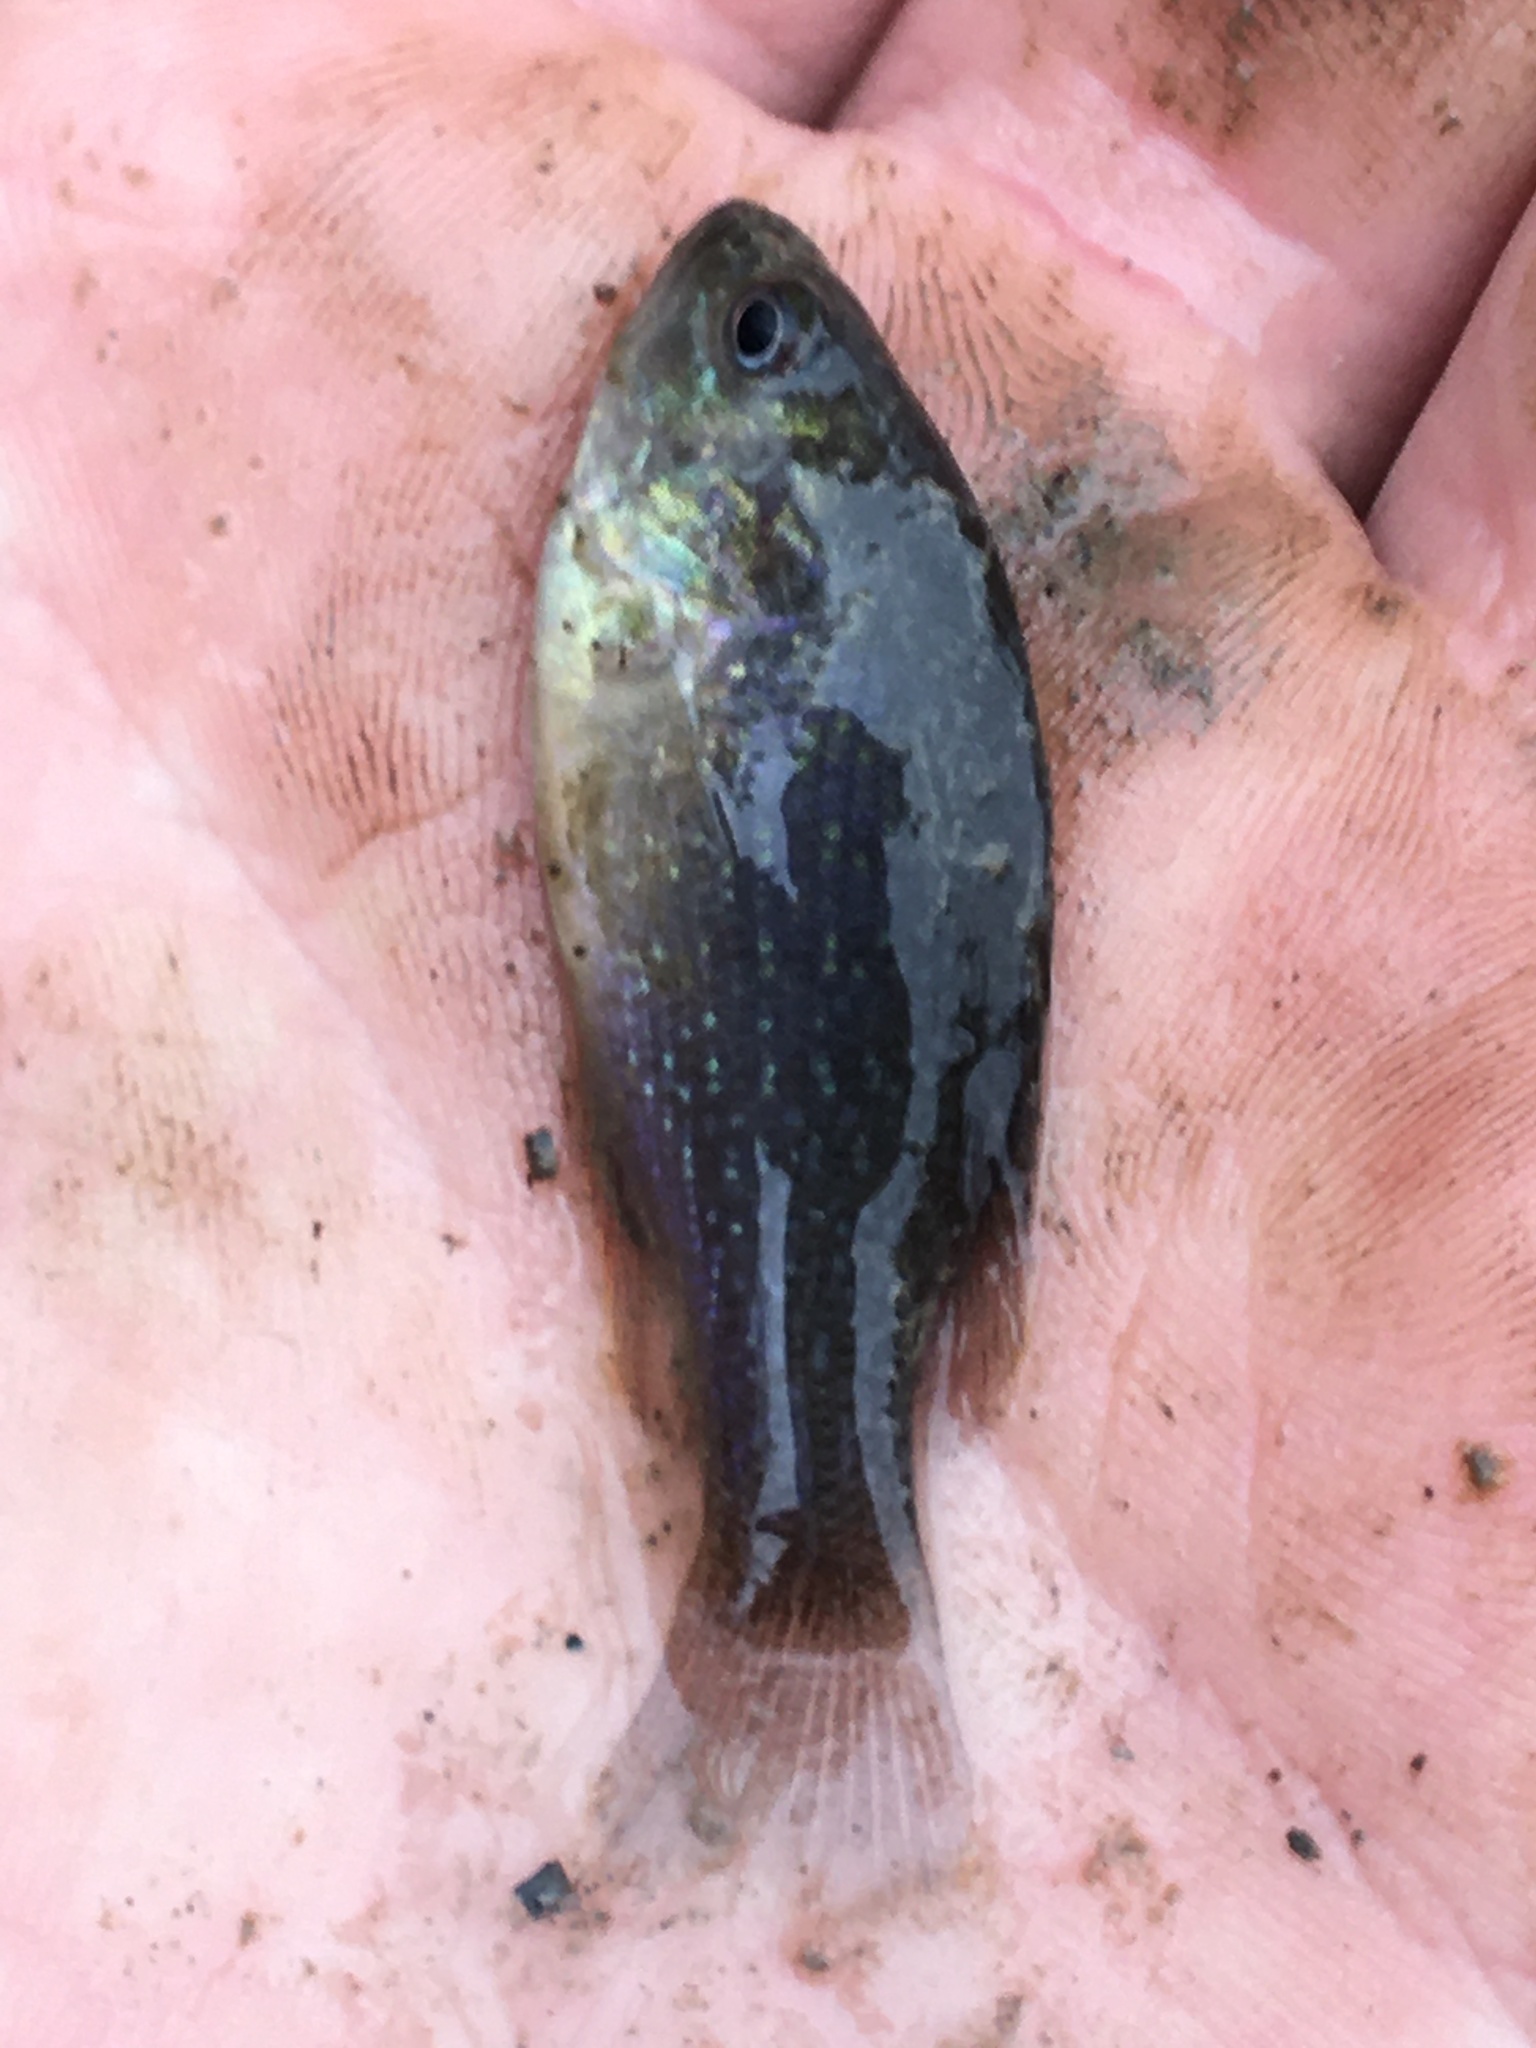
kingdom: Animalia
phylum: Chordata
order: Perciformes
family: Centrarchidae
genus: Lepomis
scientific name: Lepomis cyanellus
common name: Green sunfish
